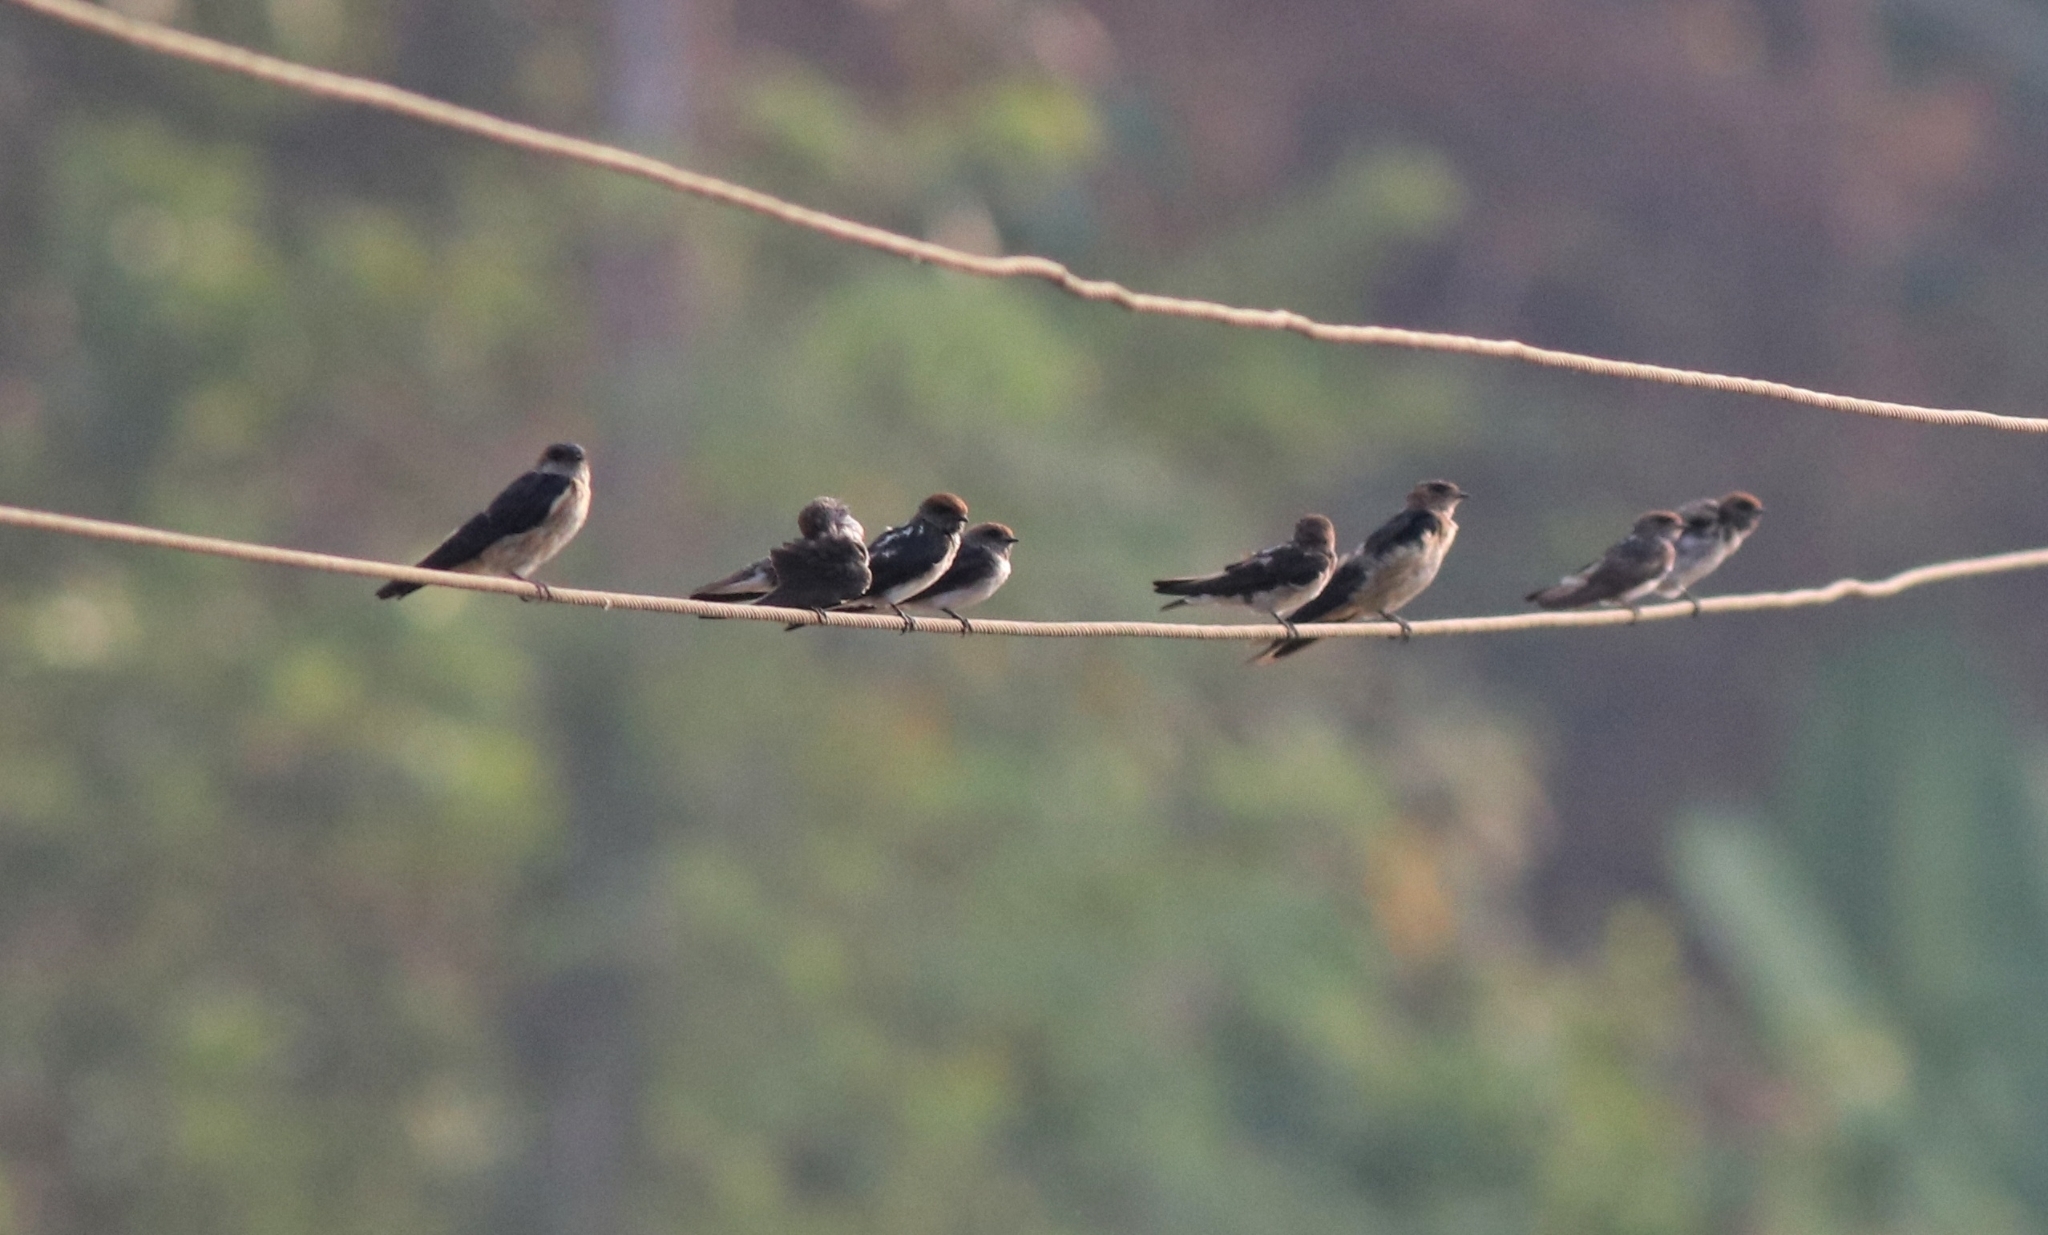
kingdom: Animalia
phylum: Chordata
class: Aves
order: Passeriformes
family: Hirundinidae
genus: Petrochelidon
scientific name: Petrochelidon fluvicola
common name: Streak-throated swallow
